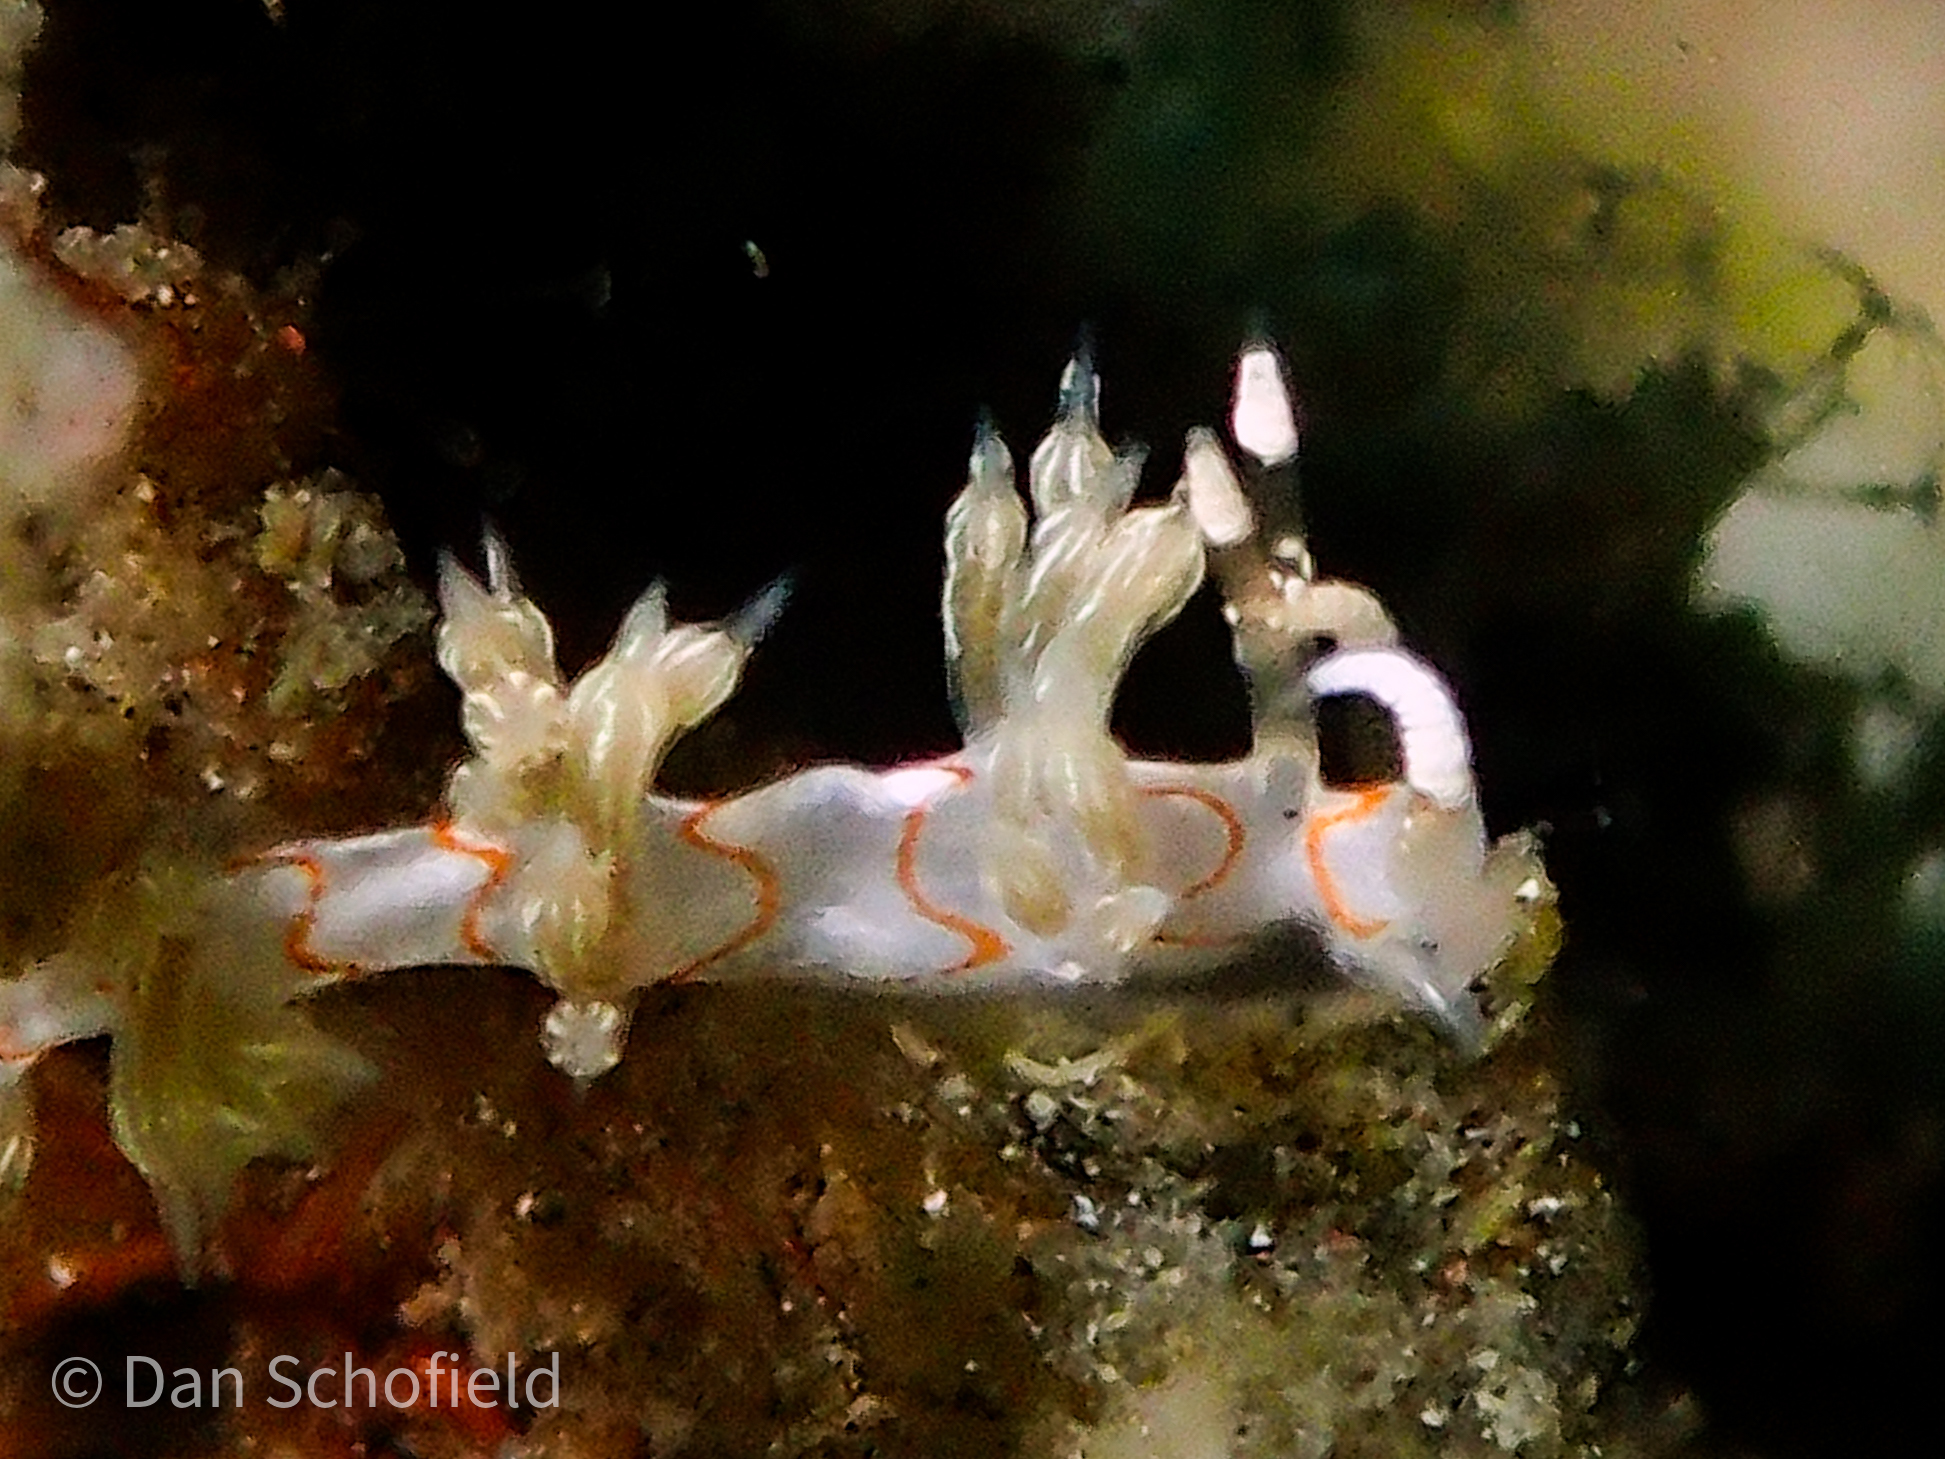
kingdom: Animalia
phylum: Mollusca
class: Gastropoda
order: Nudibranchia
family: Facelinidae
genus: Cratena
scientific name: Cratena simba
